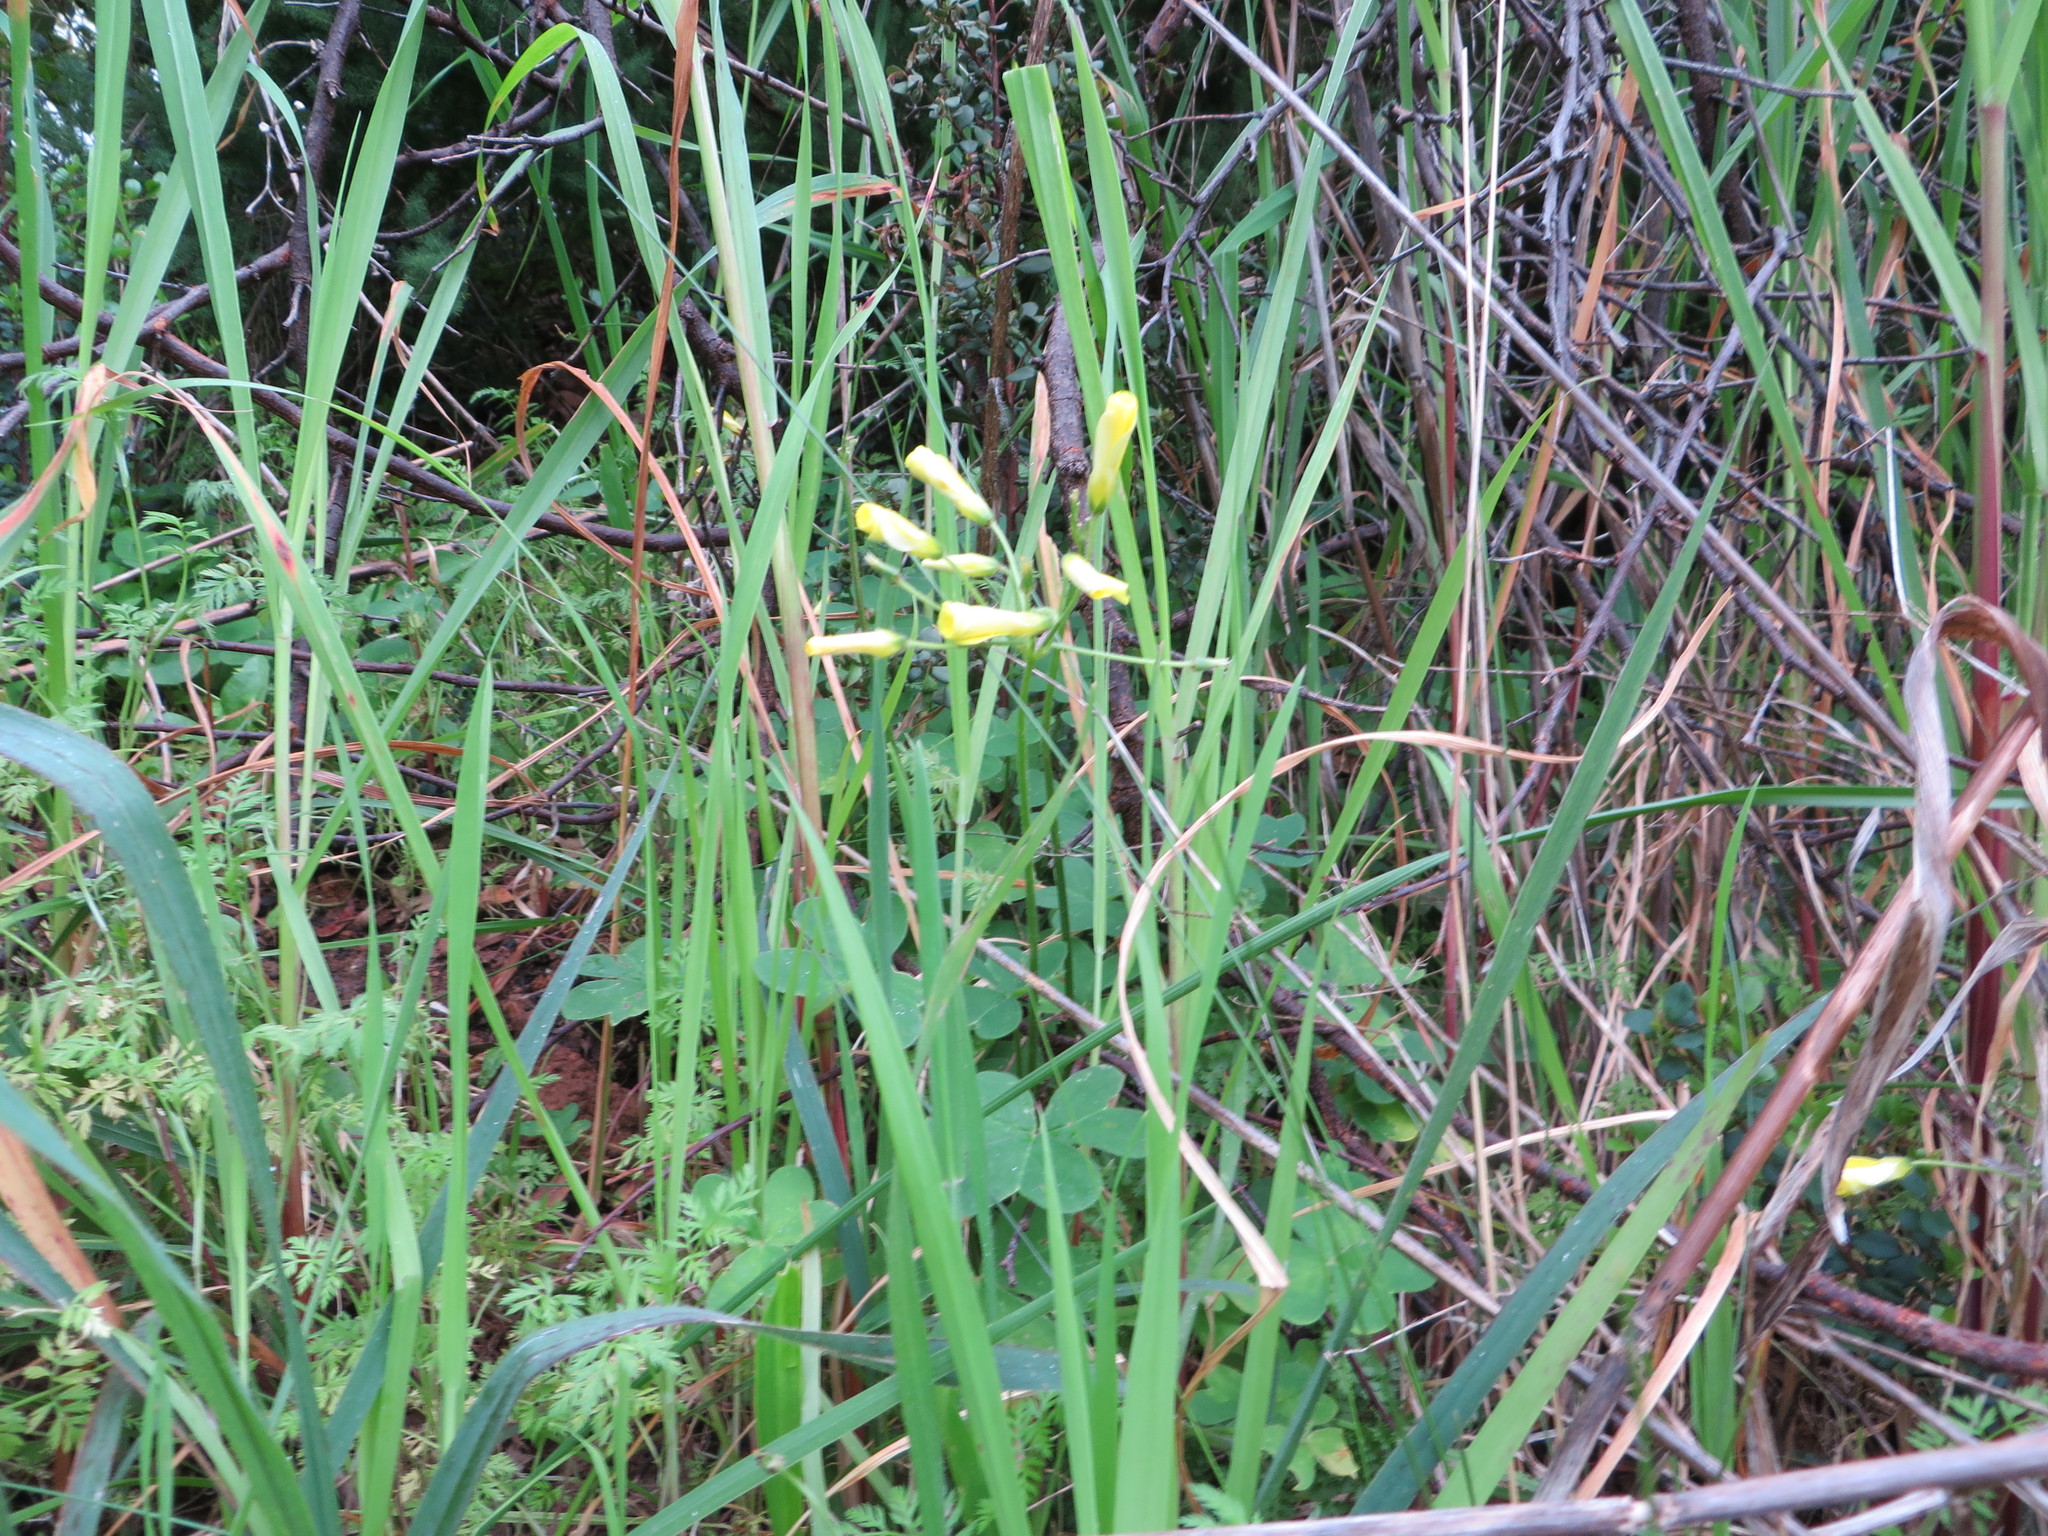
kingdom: Plantae
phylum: Tracheophyta
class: Magnoliopsida
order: Oxalidales
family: Oxalidaceae
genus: Oxalis
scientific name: Oxalis pes-caprae
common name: Bermuda-buttercup
